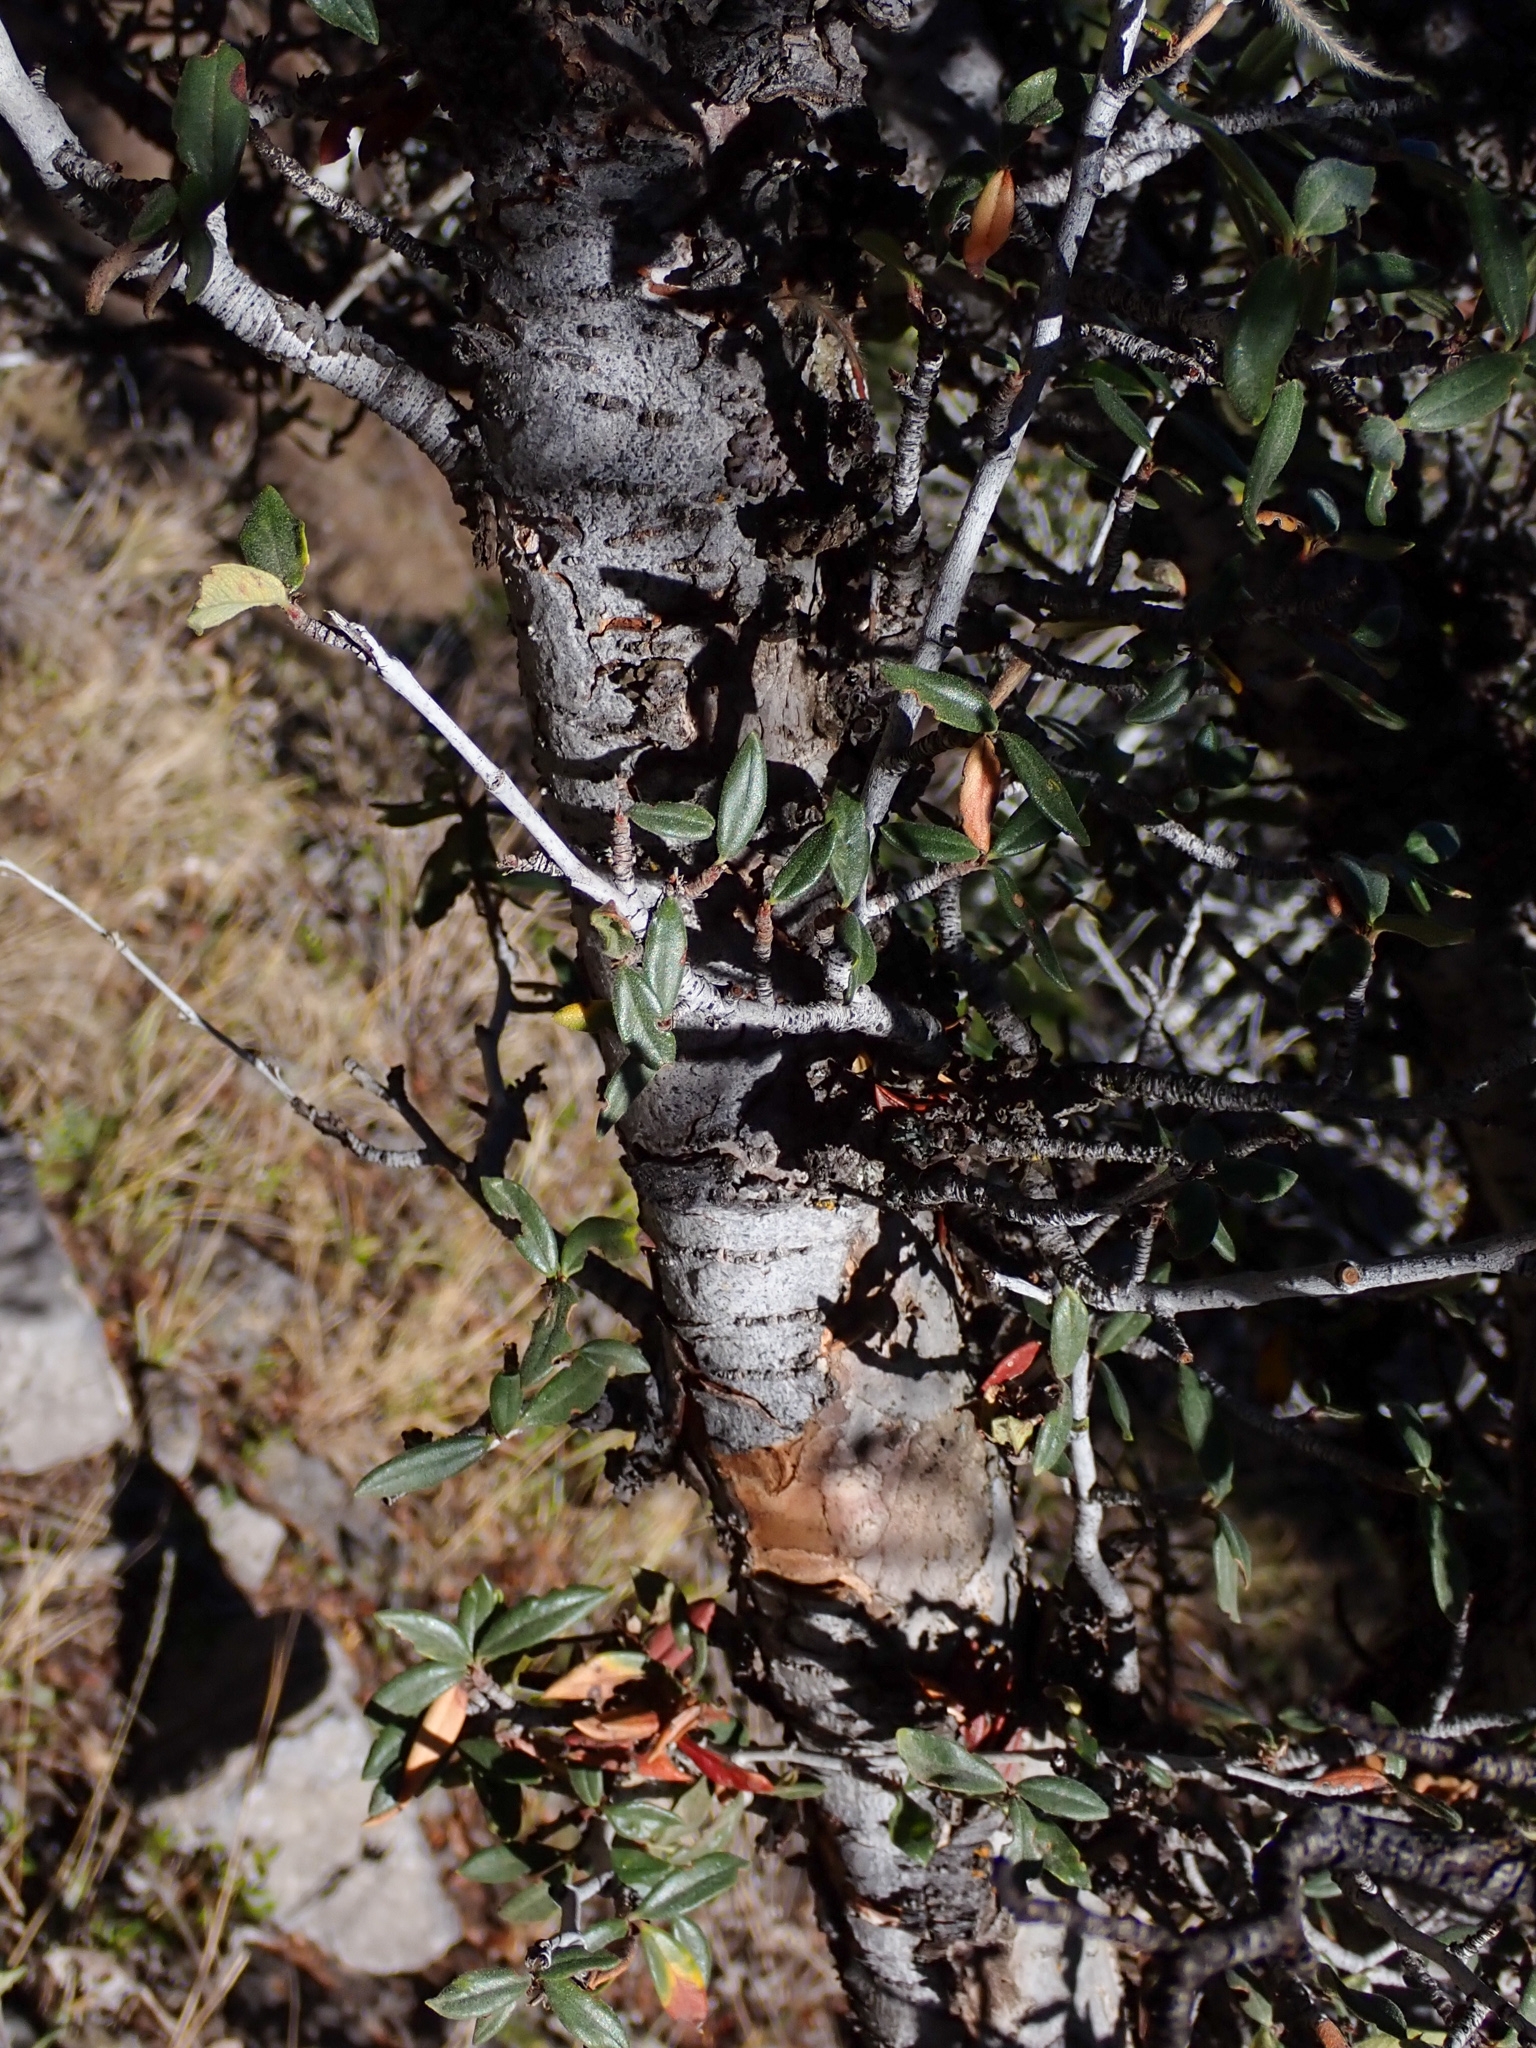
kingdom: Plantae
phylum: Tracheophyta
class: Magnoliopsida
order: Rosales
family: Rosaceae
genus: Cercocarpus
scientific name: Cercocarpus ledifolius
